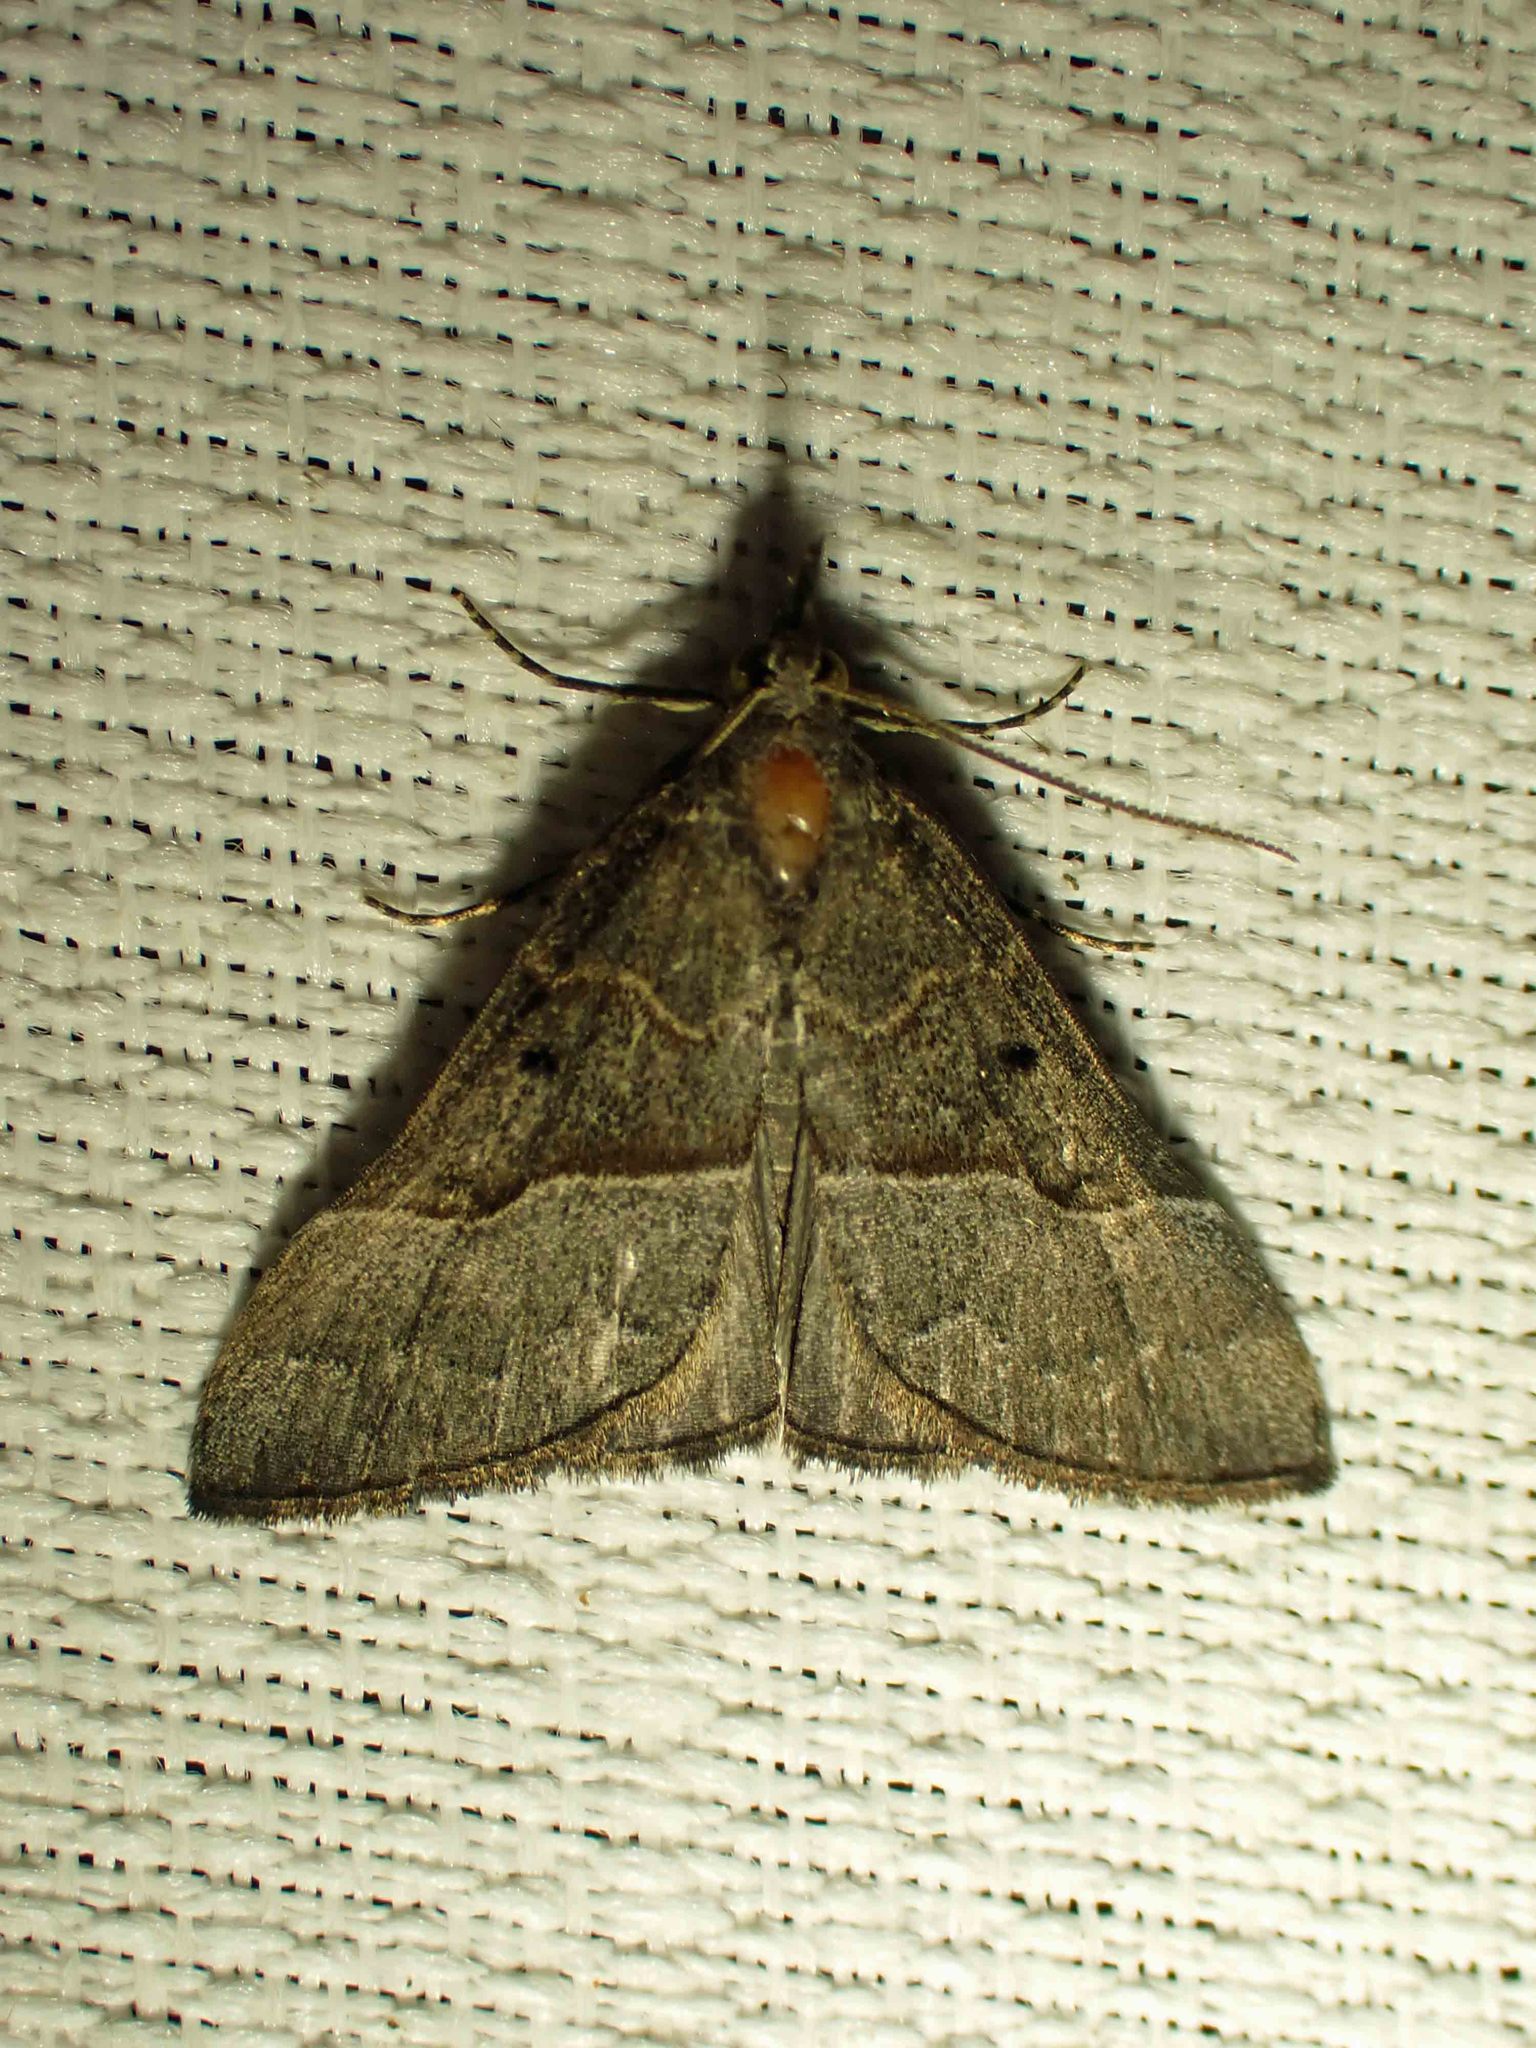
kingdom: Animalia
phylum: Arthropoda
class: Insecta
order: Lepidoptera
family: Erebidae
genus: Hypena
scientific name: Hypena eductalis
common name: Red-footed snout
